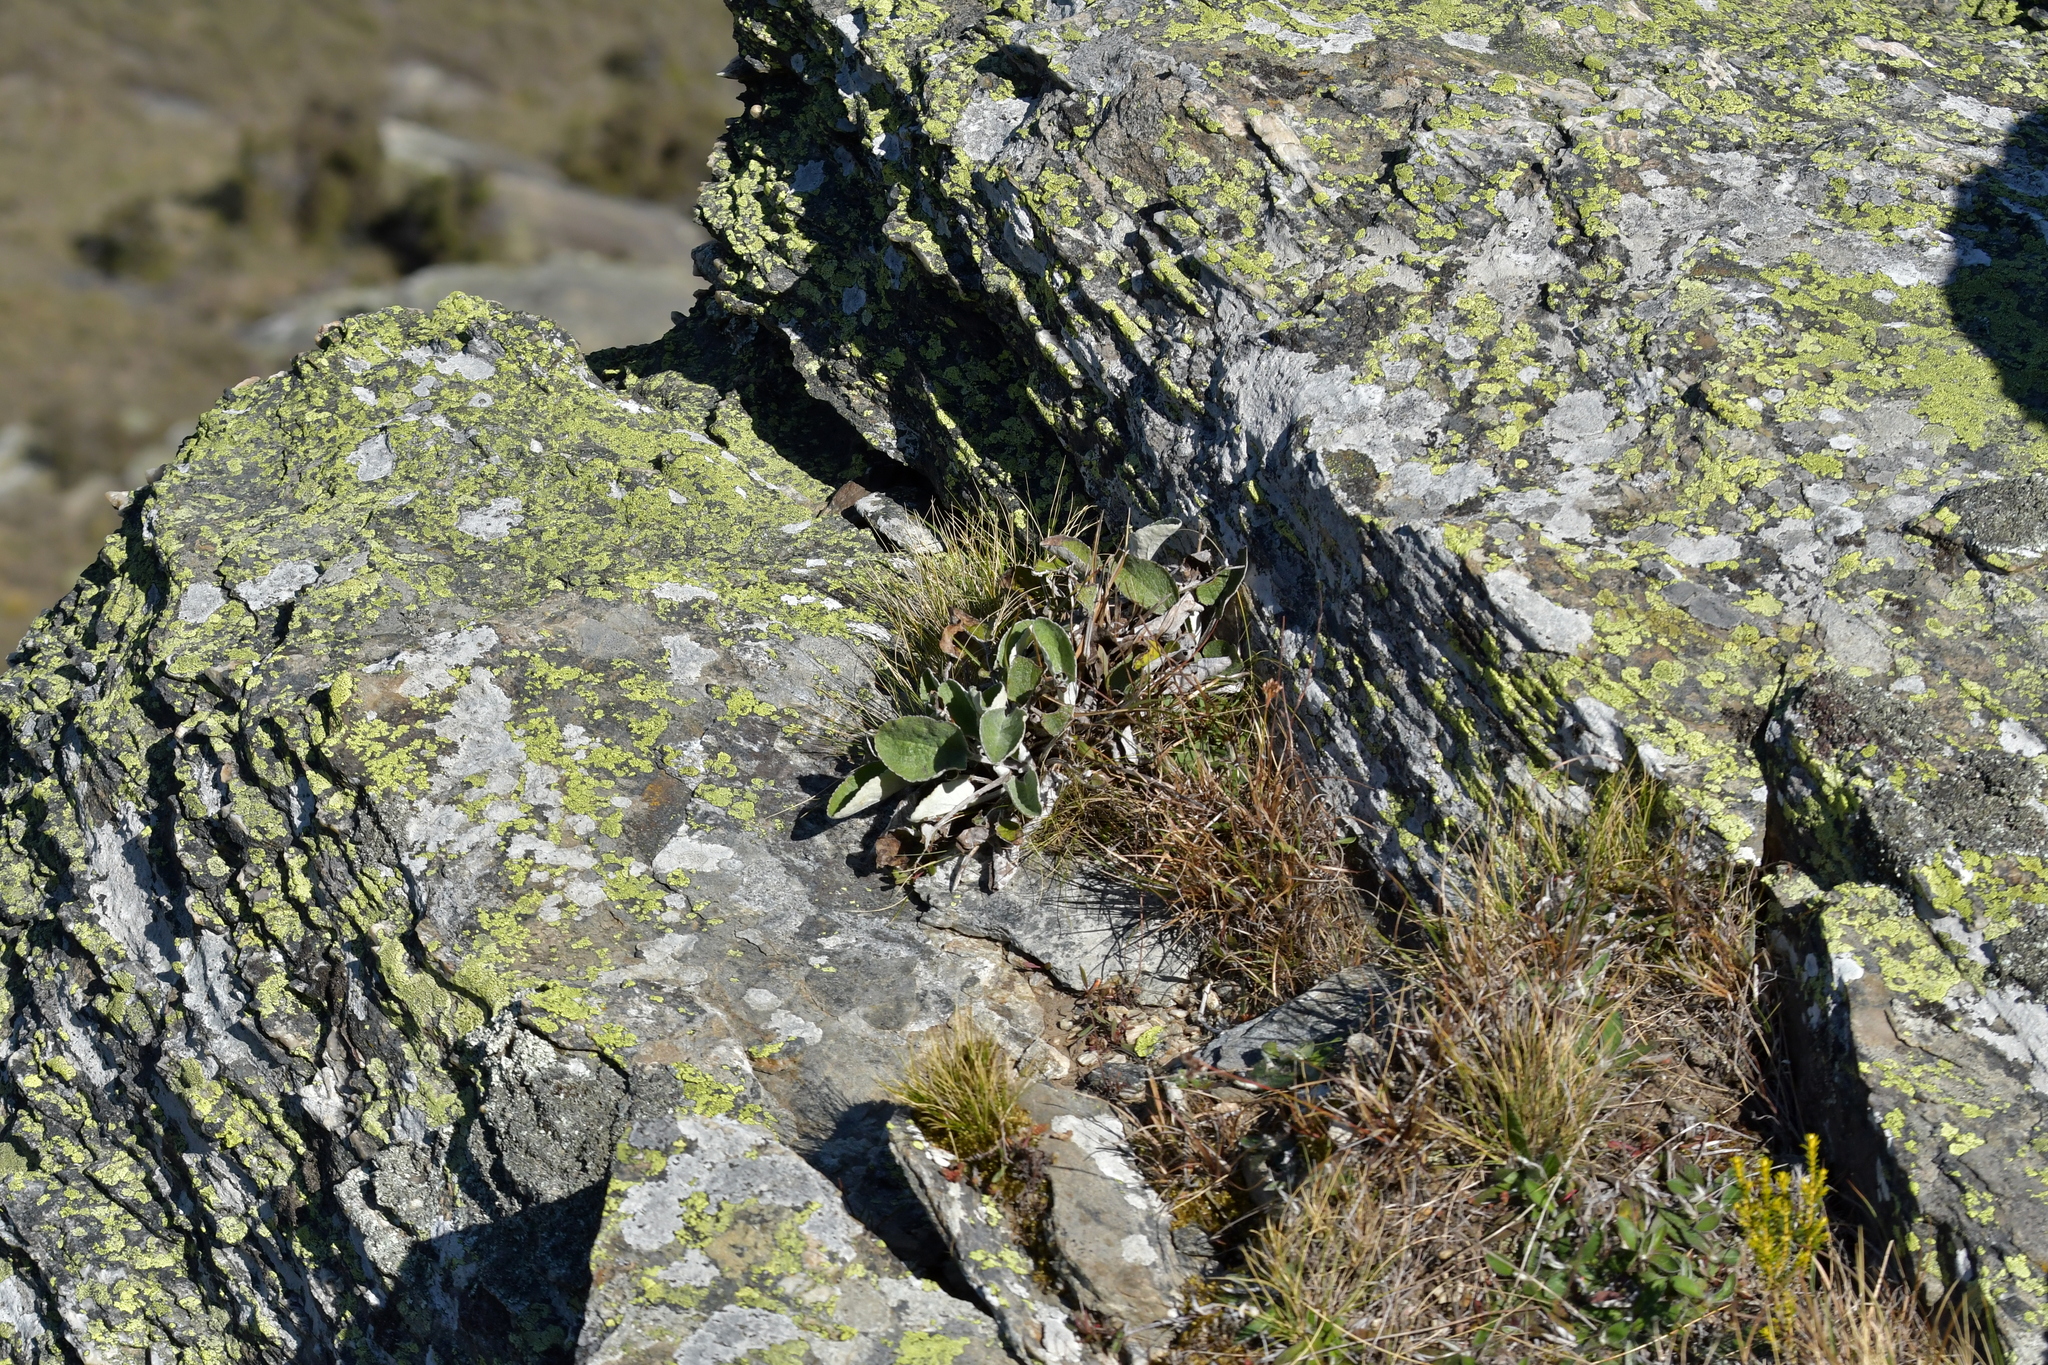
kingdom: Plantae
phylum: Tracheophyta
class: Magnoliopsida
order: Asterales
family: Asteraceae
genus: Brachyglottis
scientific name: Brachyglottis southlandica
